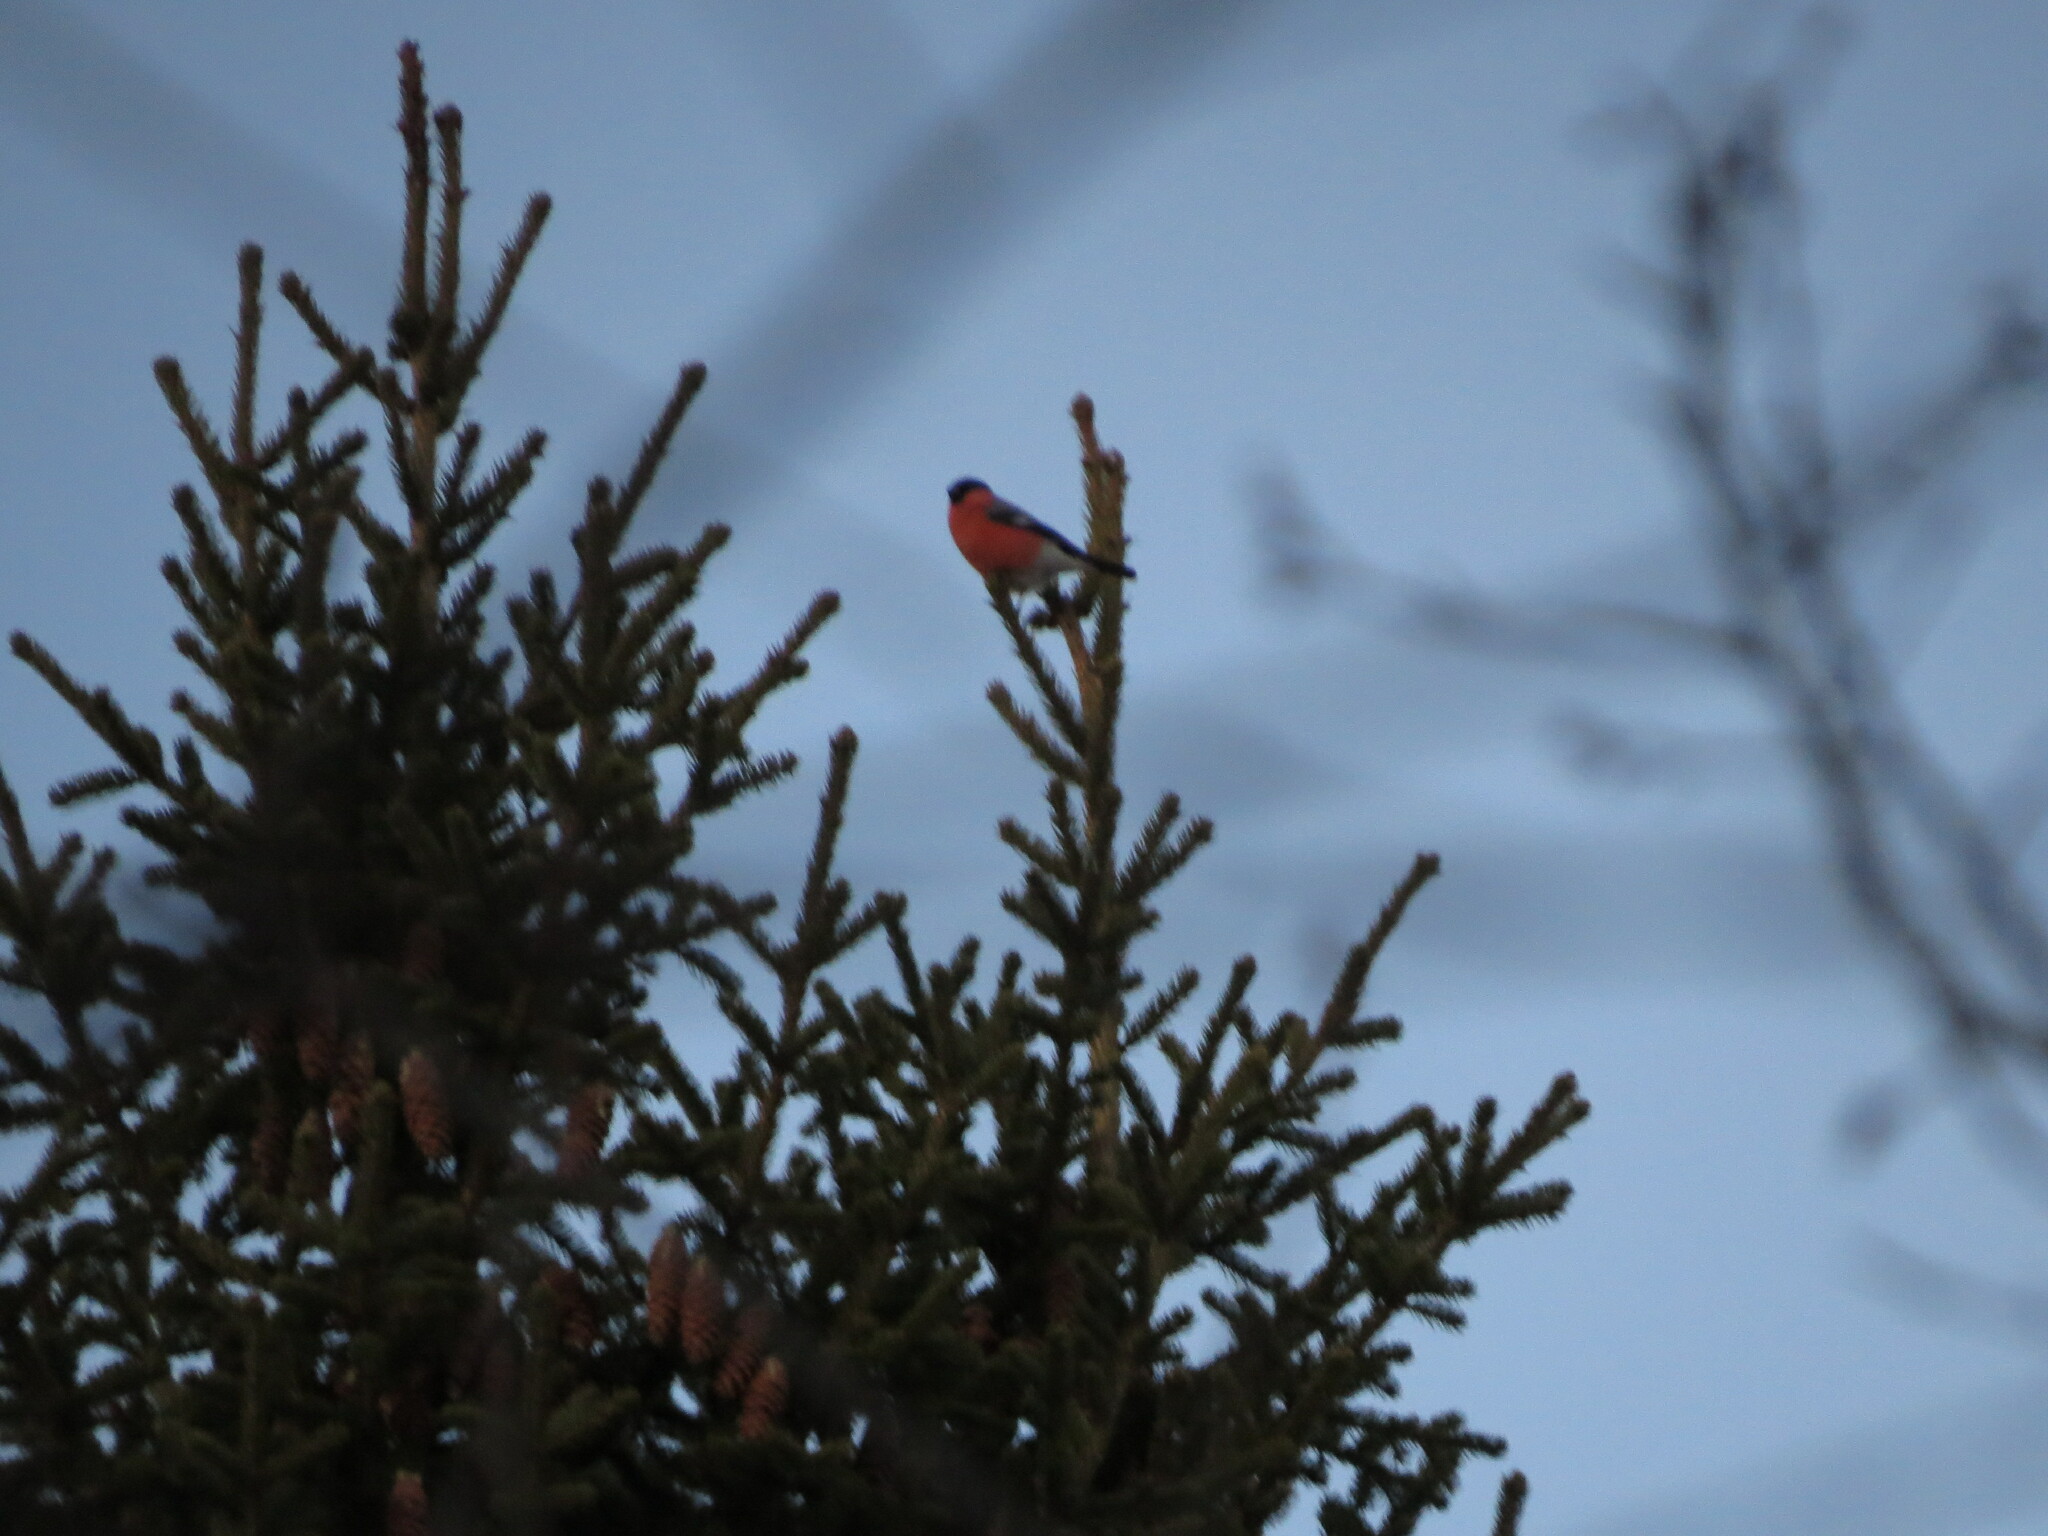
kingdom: Animalia
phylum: Chordata
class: Aves
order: Passeriformes
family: Fringillidae
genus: Pyrrhula
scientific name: Pyrrhula pyrrhula
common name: Eurasian bullfinch
